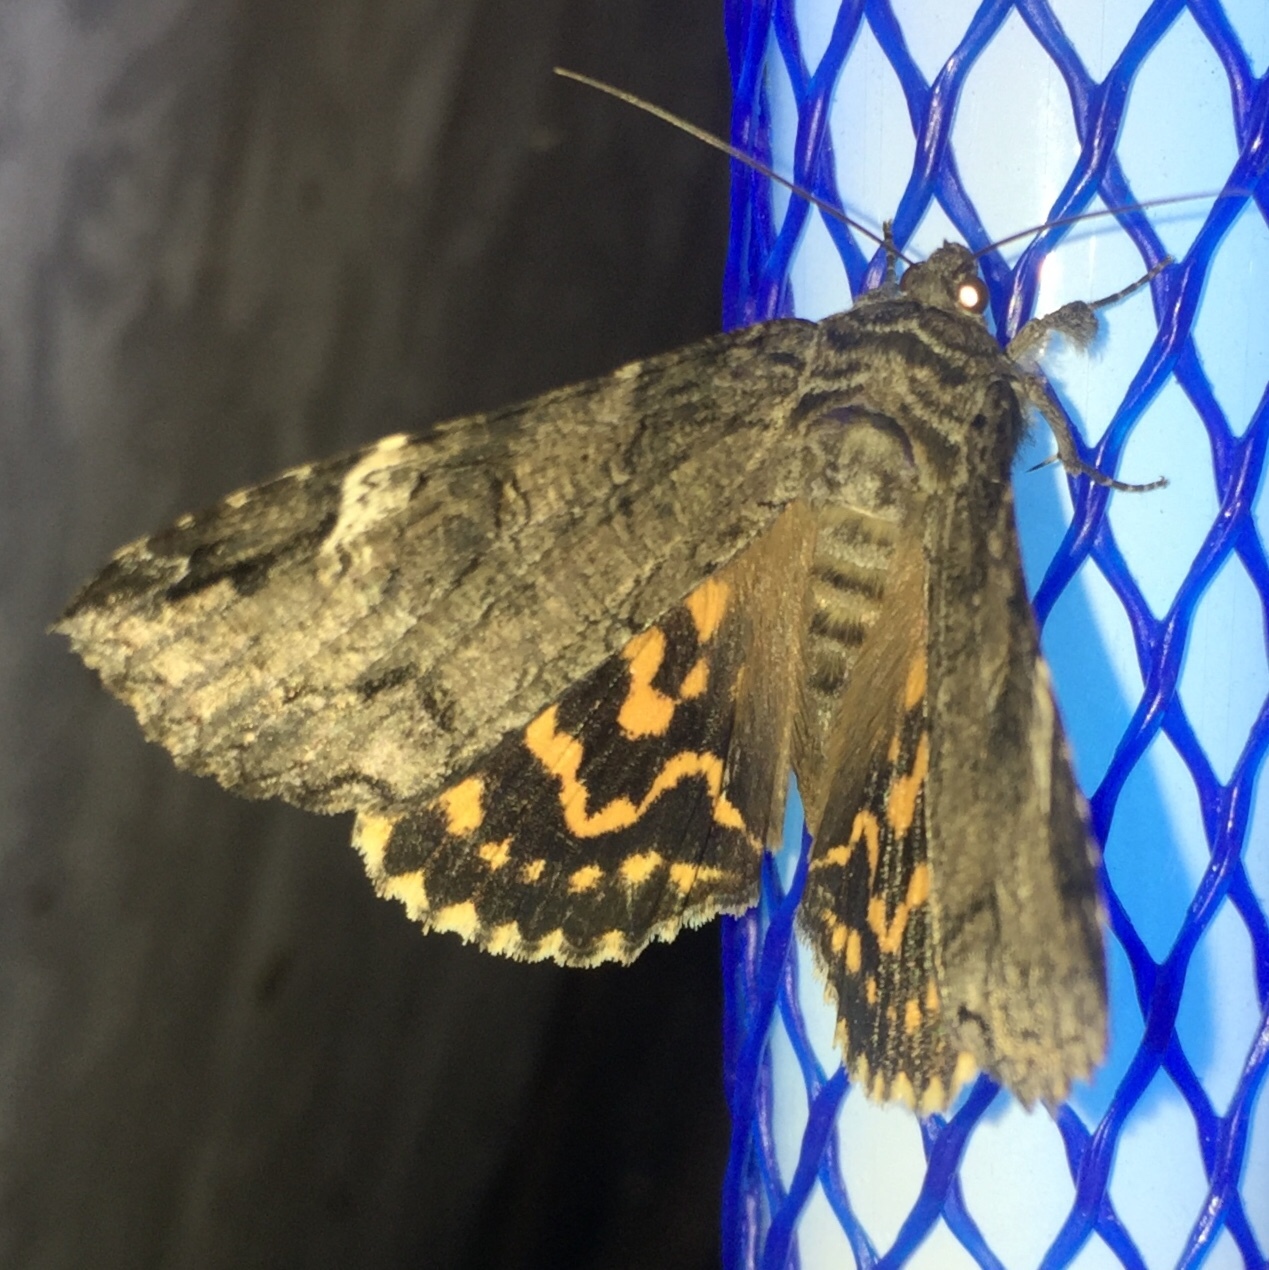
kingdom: Animalia
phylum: Arthropoda
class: Insecta
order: Lepidoptera
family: Erebidae
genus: Euparthenos
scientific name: Euparthenos nubilis
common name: Locust underwing
